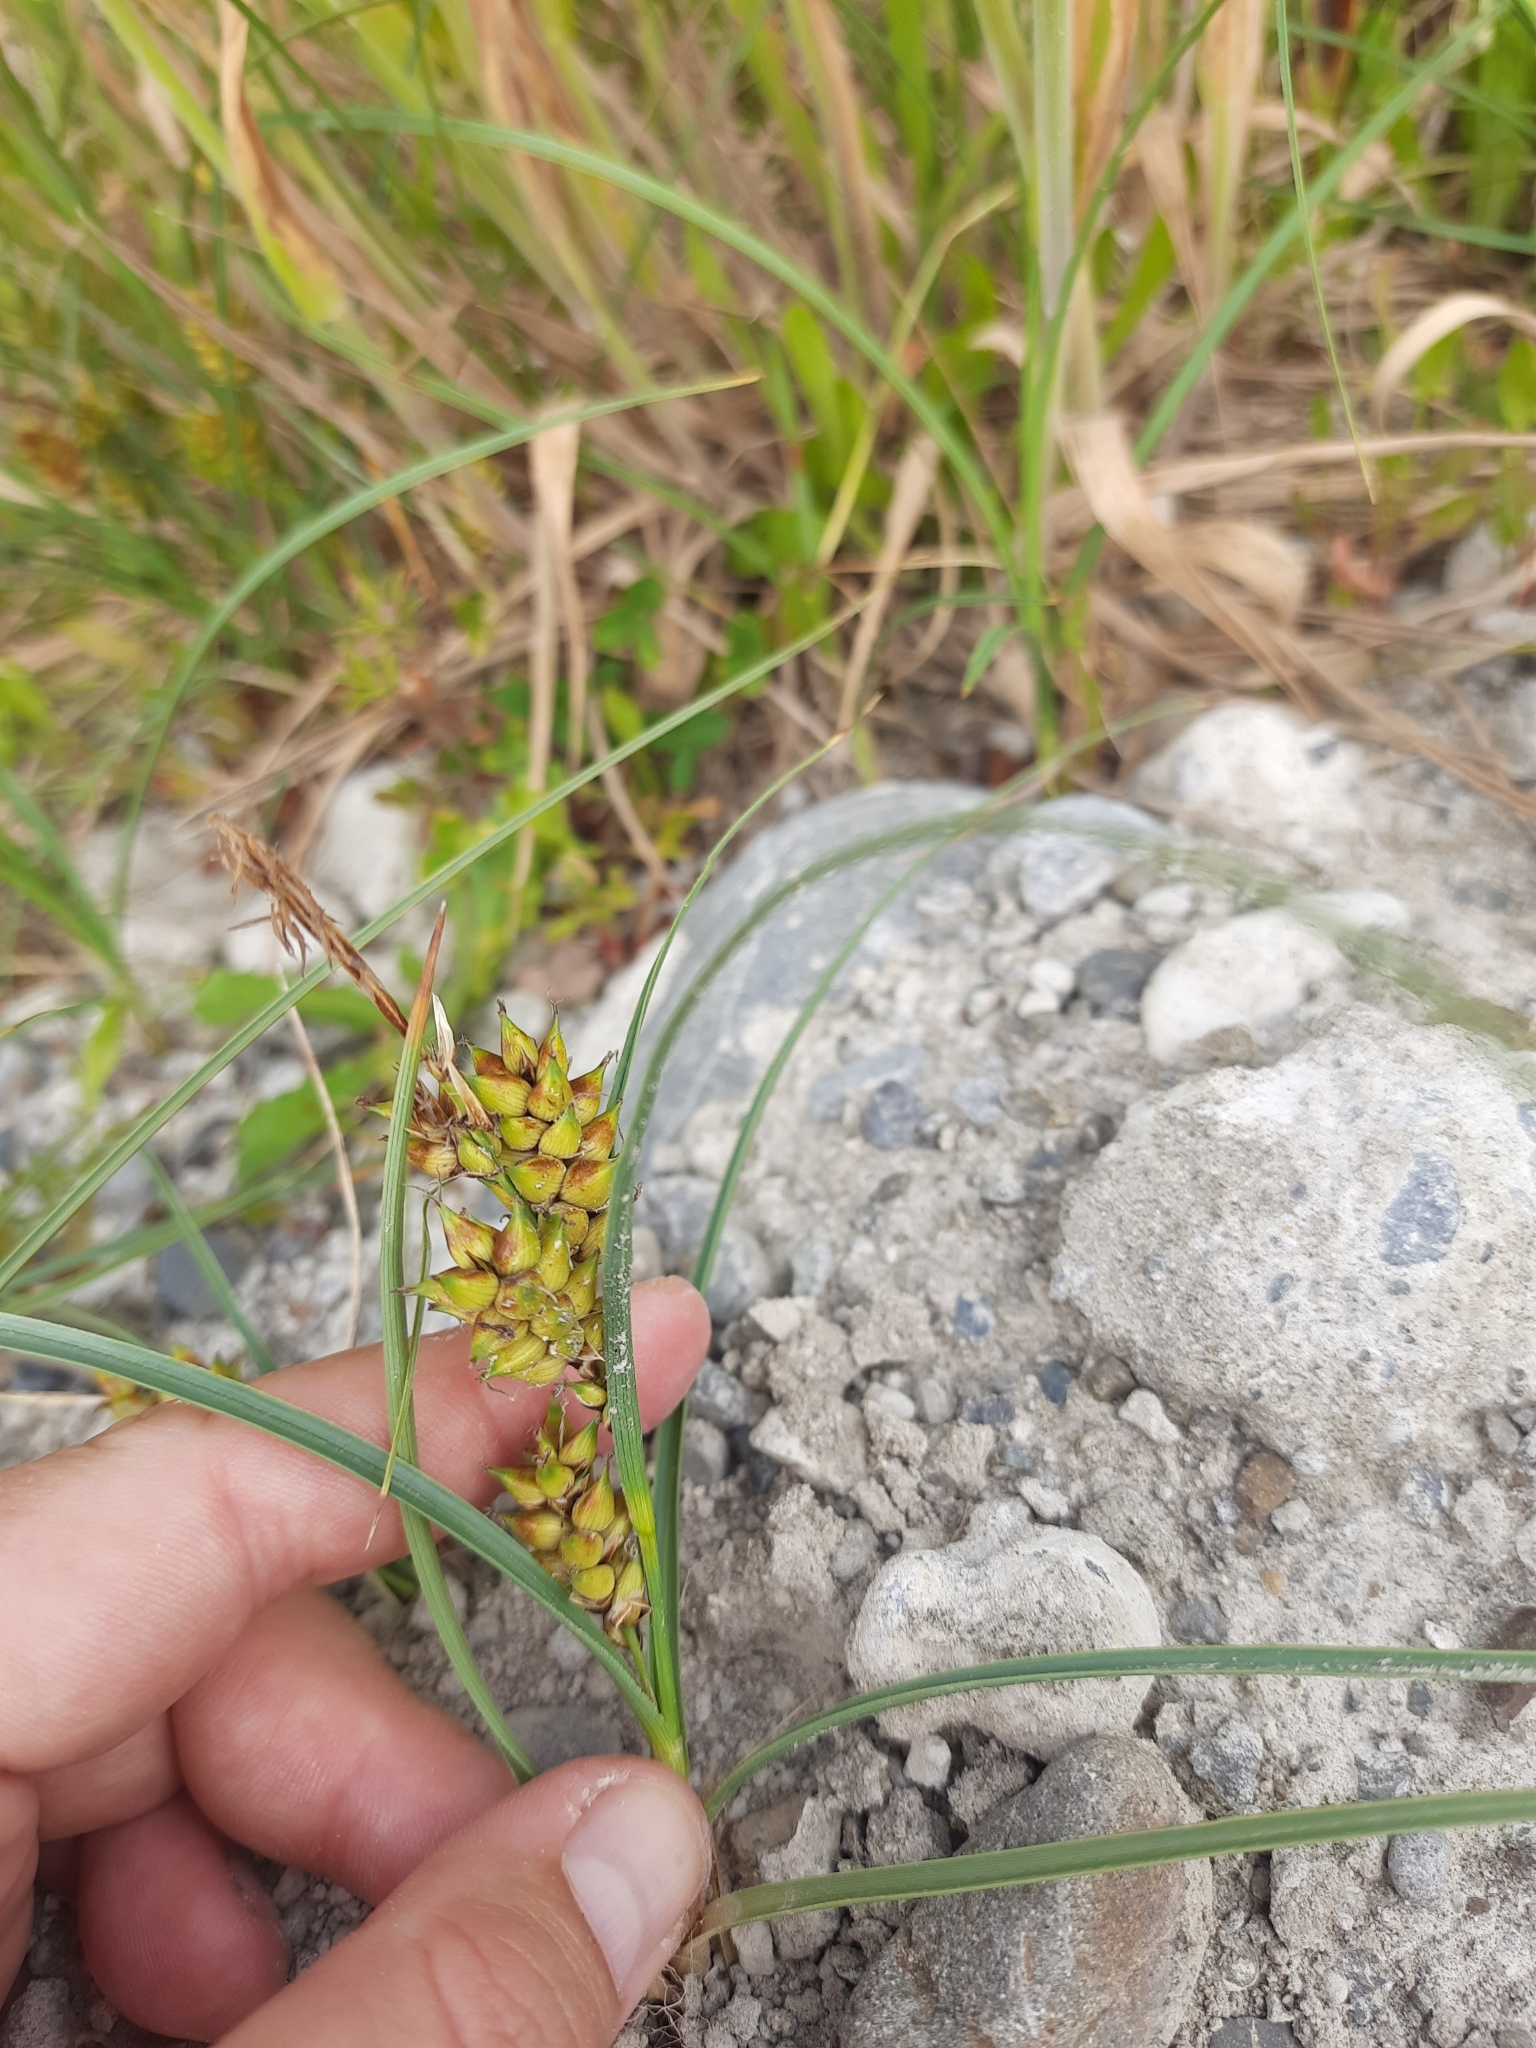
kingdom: Plantae
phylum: Tracheophyta
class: Liliopsida
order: Poales
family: Cyperaceae
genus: Carex
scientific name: Carex pumila
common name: Dwarf sedge
